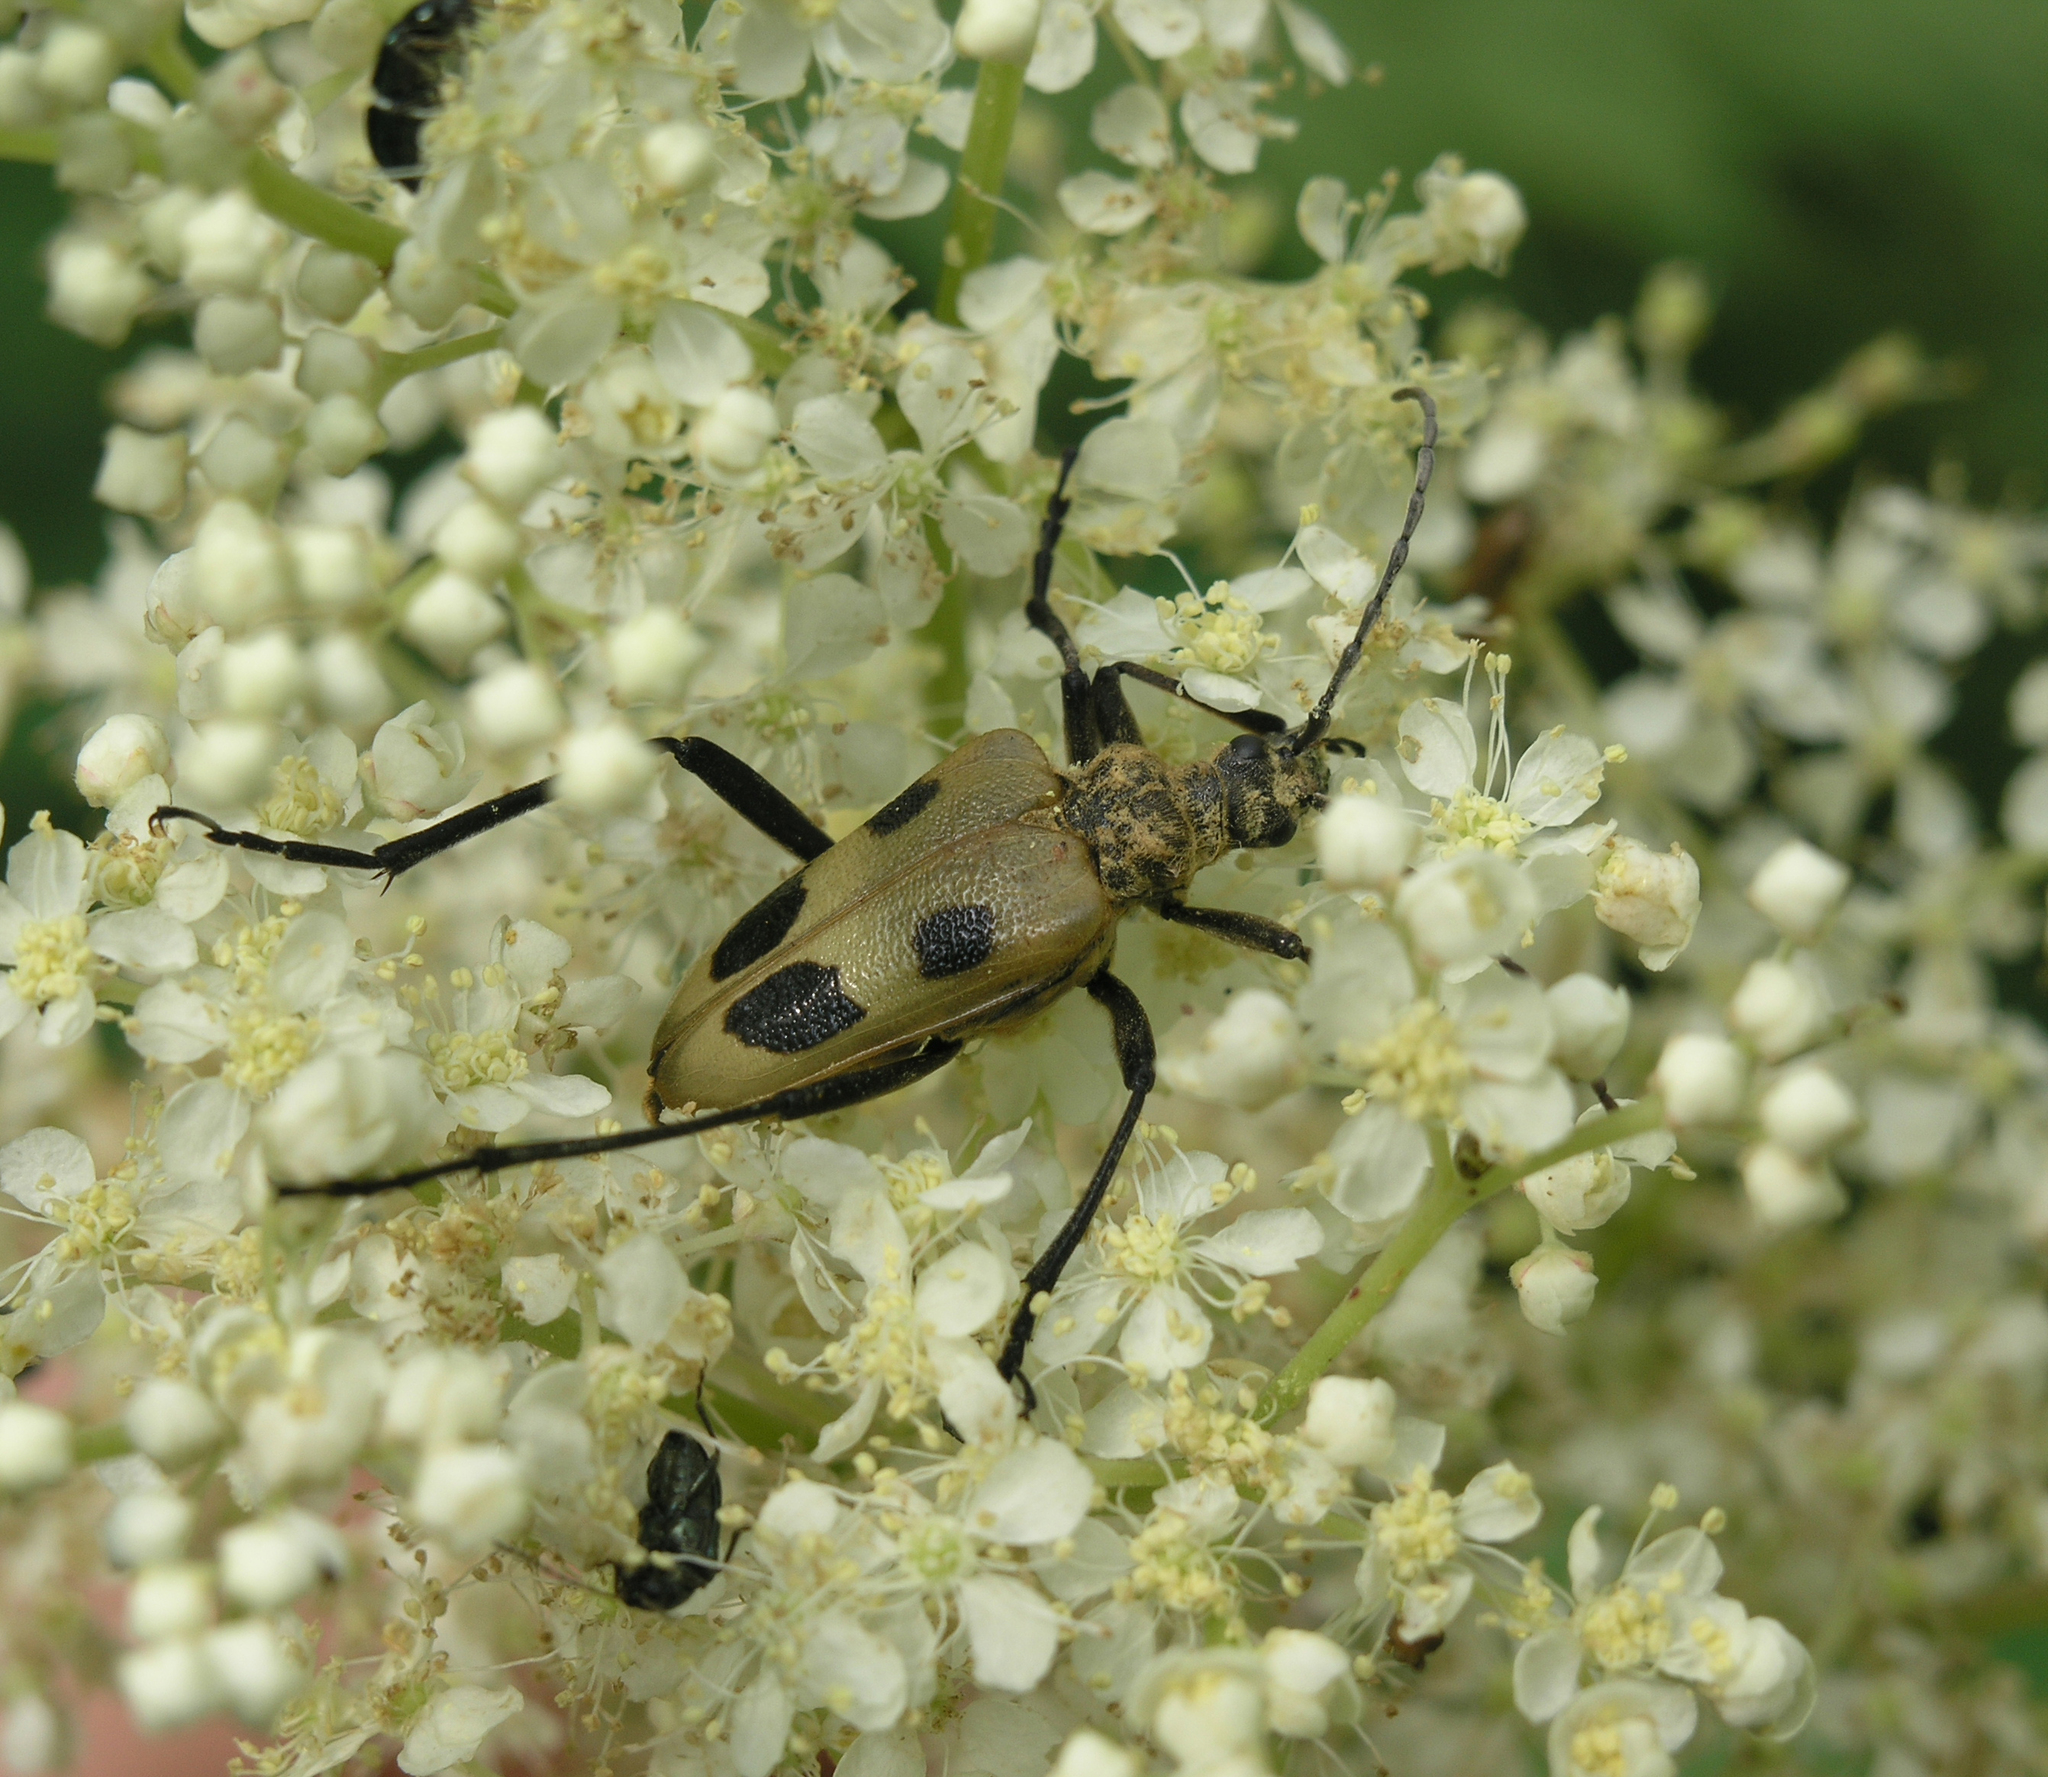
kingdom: Animalia
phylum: Arthropoda
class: Insecta
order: Coleoptera
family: Cerambycidae
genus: Pachyta
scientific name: Pachyta quadrimaculata
